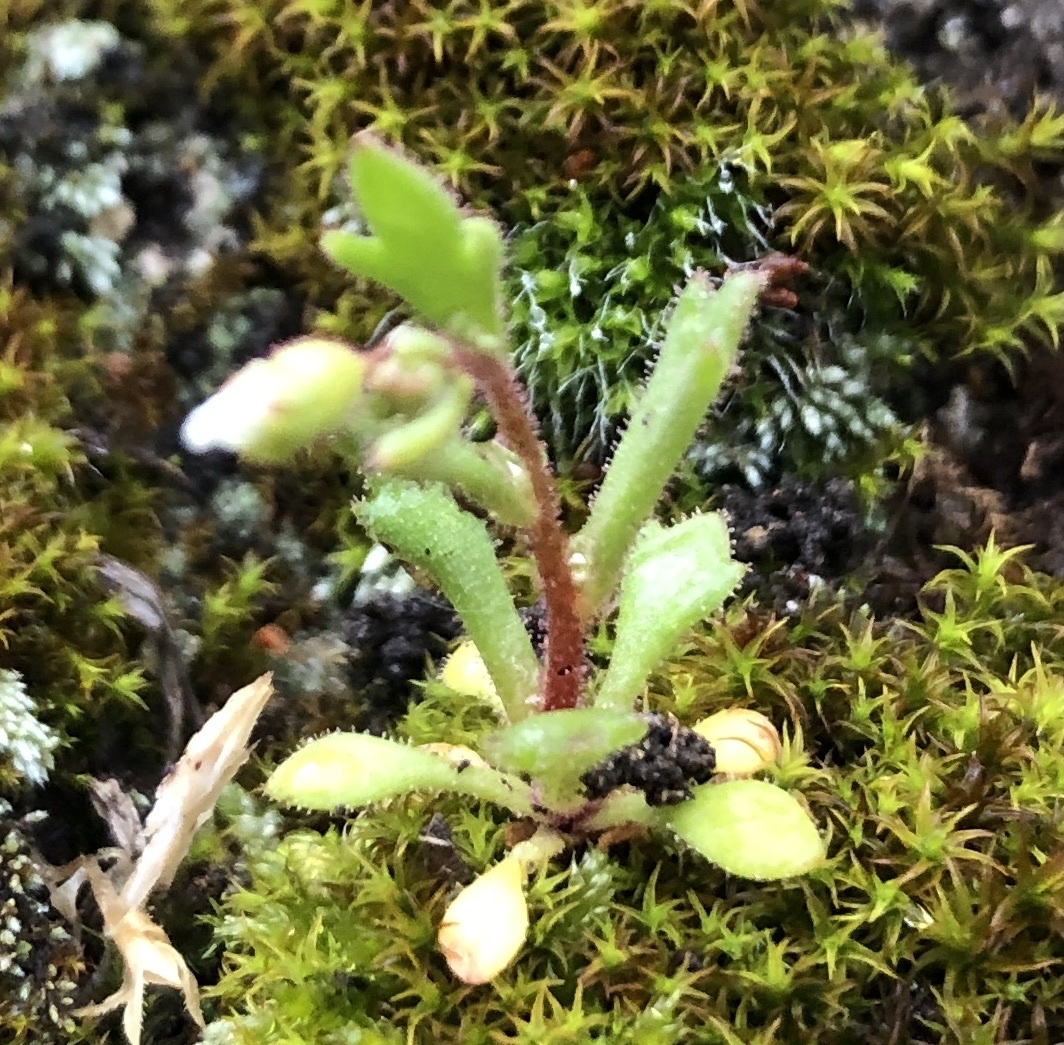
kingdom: Plantae
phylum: Tracheophyta
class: Magnoliopsida
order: Saxifragales
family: Saxifragaceae
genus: Saxifraga
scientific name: Saxifraga tridactylites
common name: Rue-leaved saxifrage
